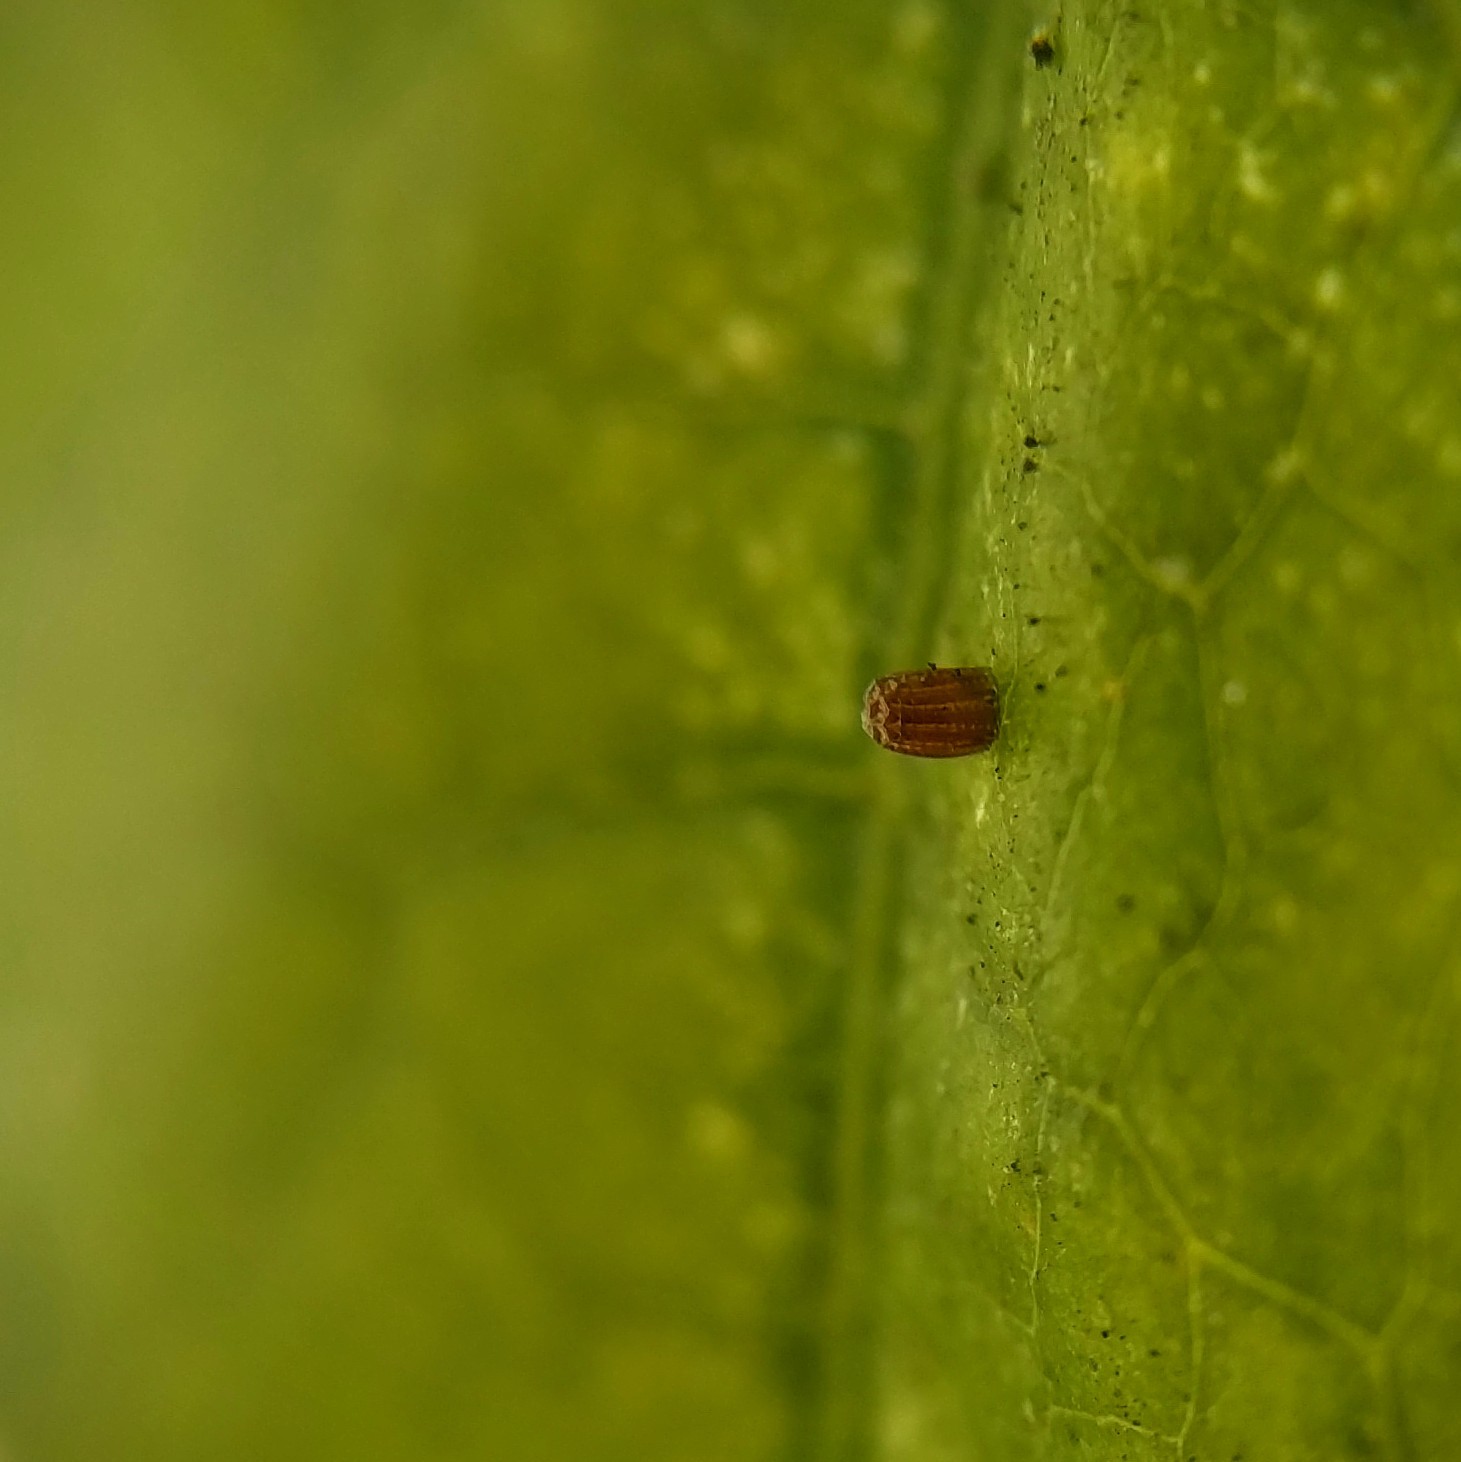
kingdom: Animalia
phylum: Arthropoda
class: Insecta
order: Lepidoptera
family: Nymphalidae
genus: Dione
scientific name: Dione vanillae
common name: Gulf fritillary
